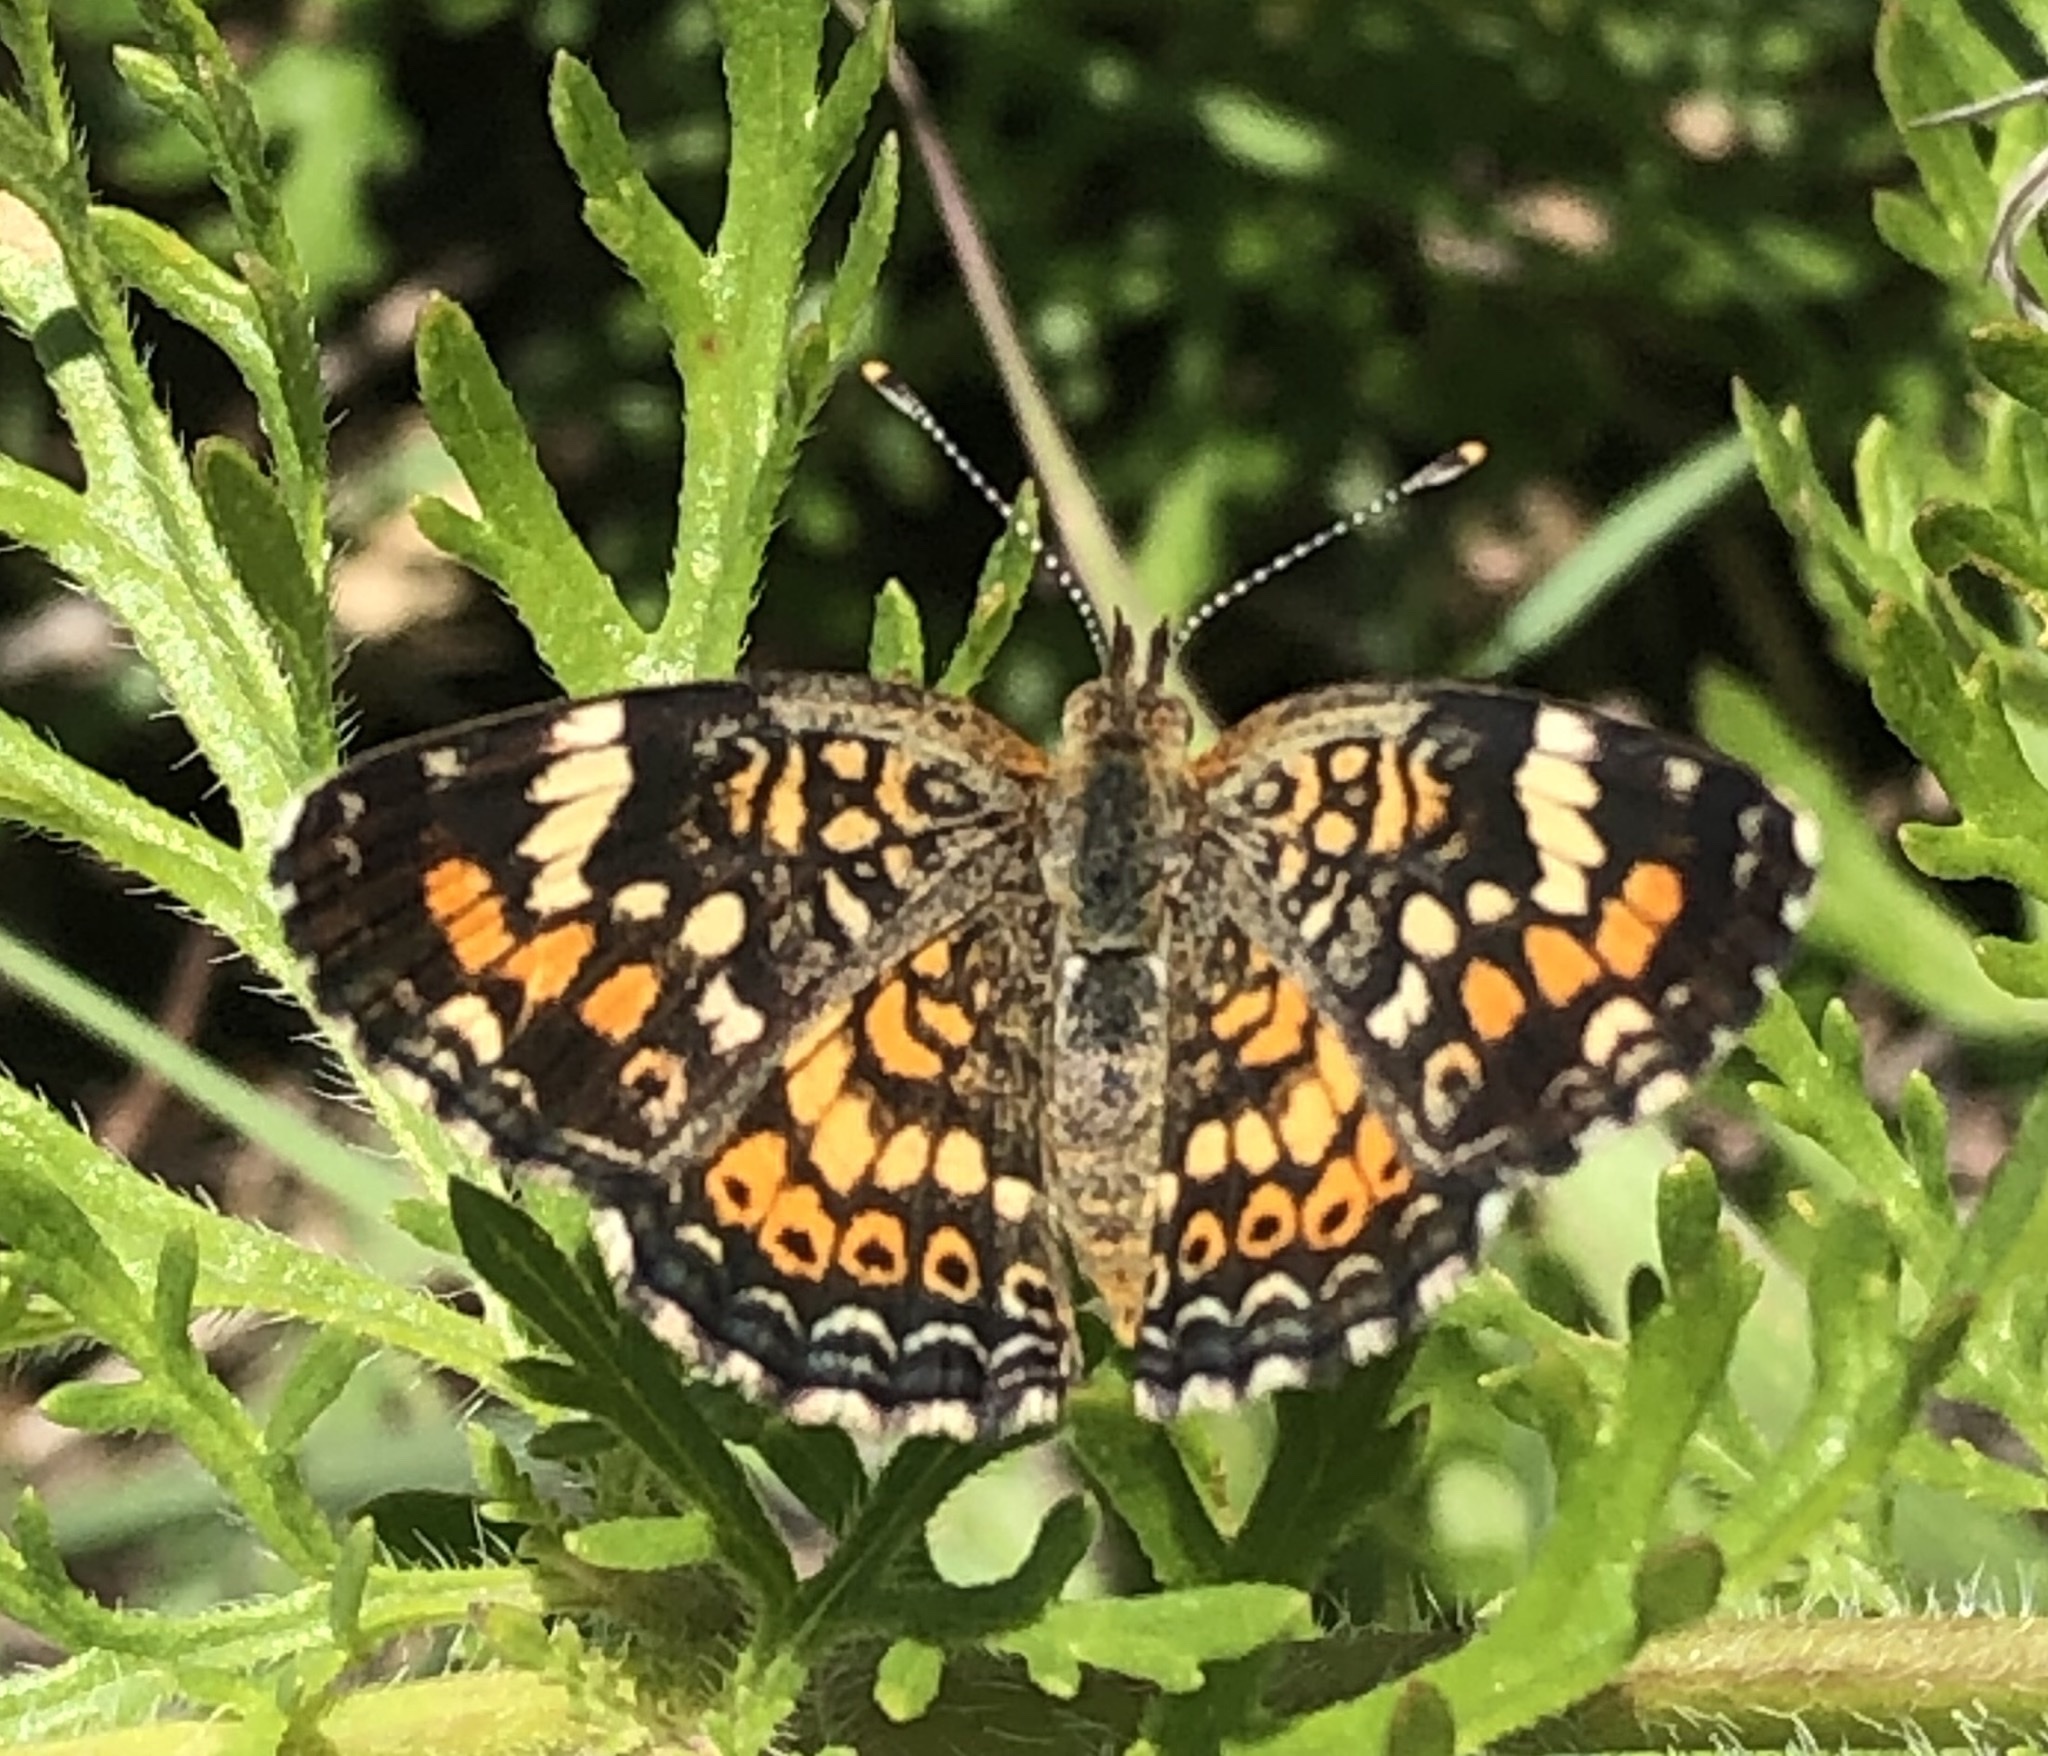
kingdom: Animalia
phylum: Arthropoda
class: Insecta
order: Lepidoptera
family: Nymphalidae
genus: Phyciodes
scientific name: Phyciodes phaon
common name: Phaon crescent
